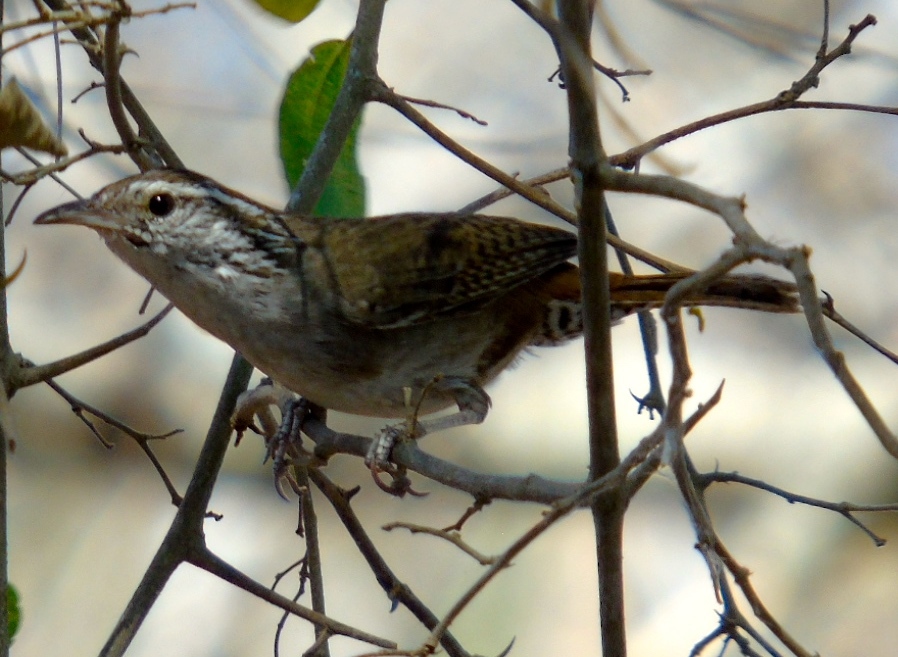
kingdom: Animalia
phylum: Chordata
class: Aves
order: Passeriformes
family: Troglodytidae
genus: Thryophilus
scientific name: Thryophilus sinaloa
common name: Sinaloa wren
